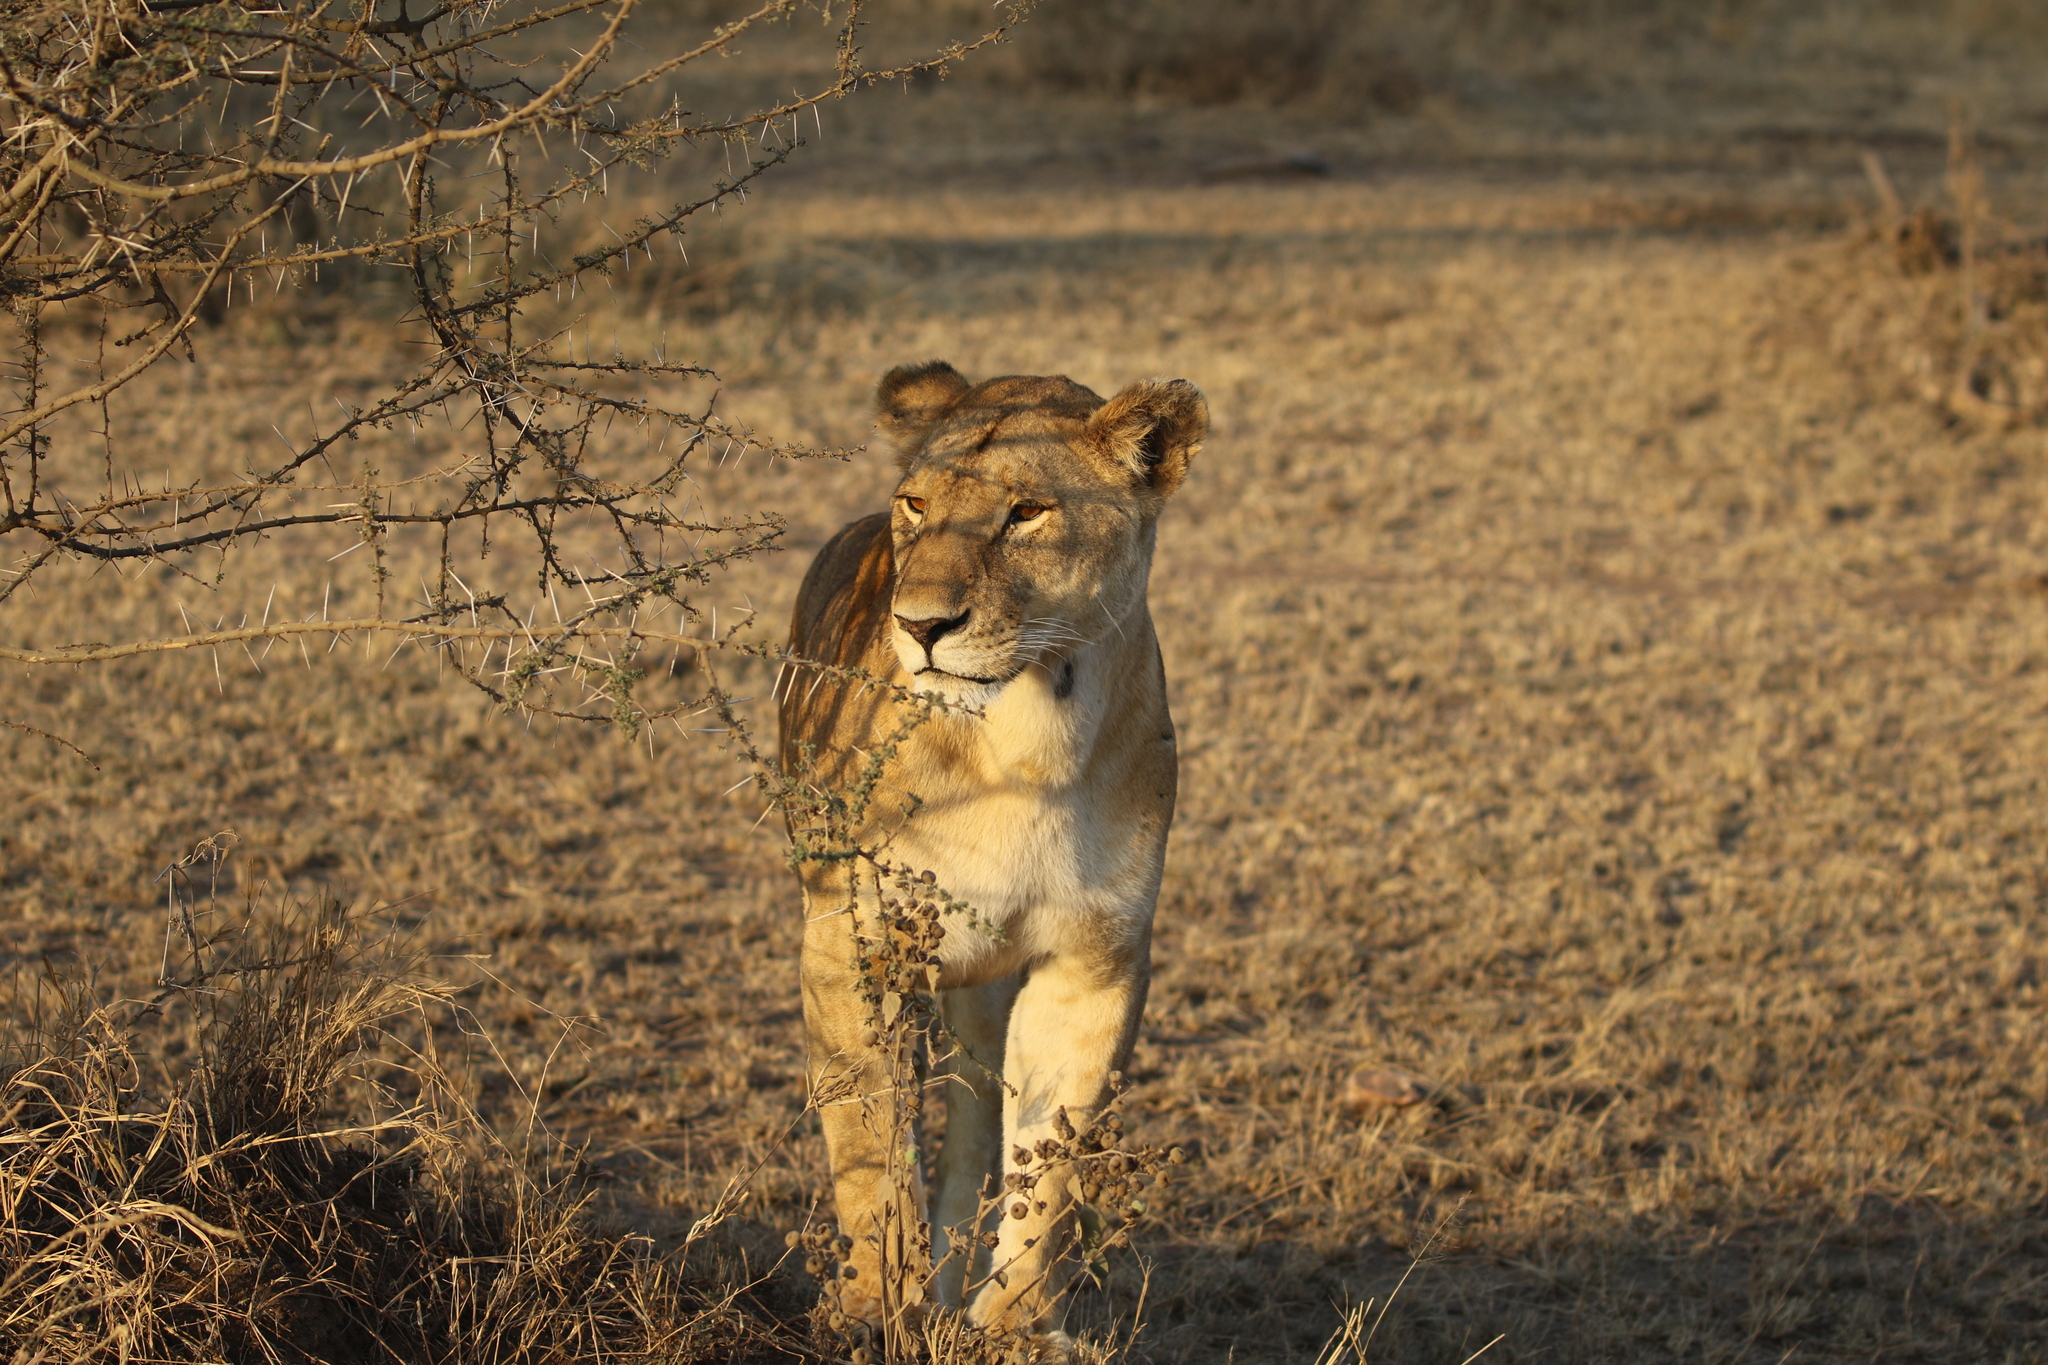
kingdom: Animalia
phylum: Chordata
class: Mammalia
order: Carnivora
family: Felidae
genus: Panthera
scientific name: Panthera leo
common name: Lion
